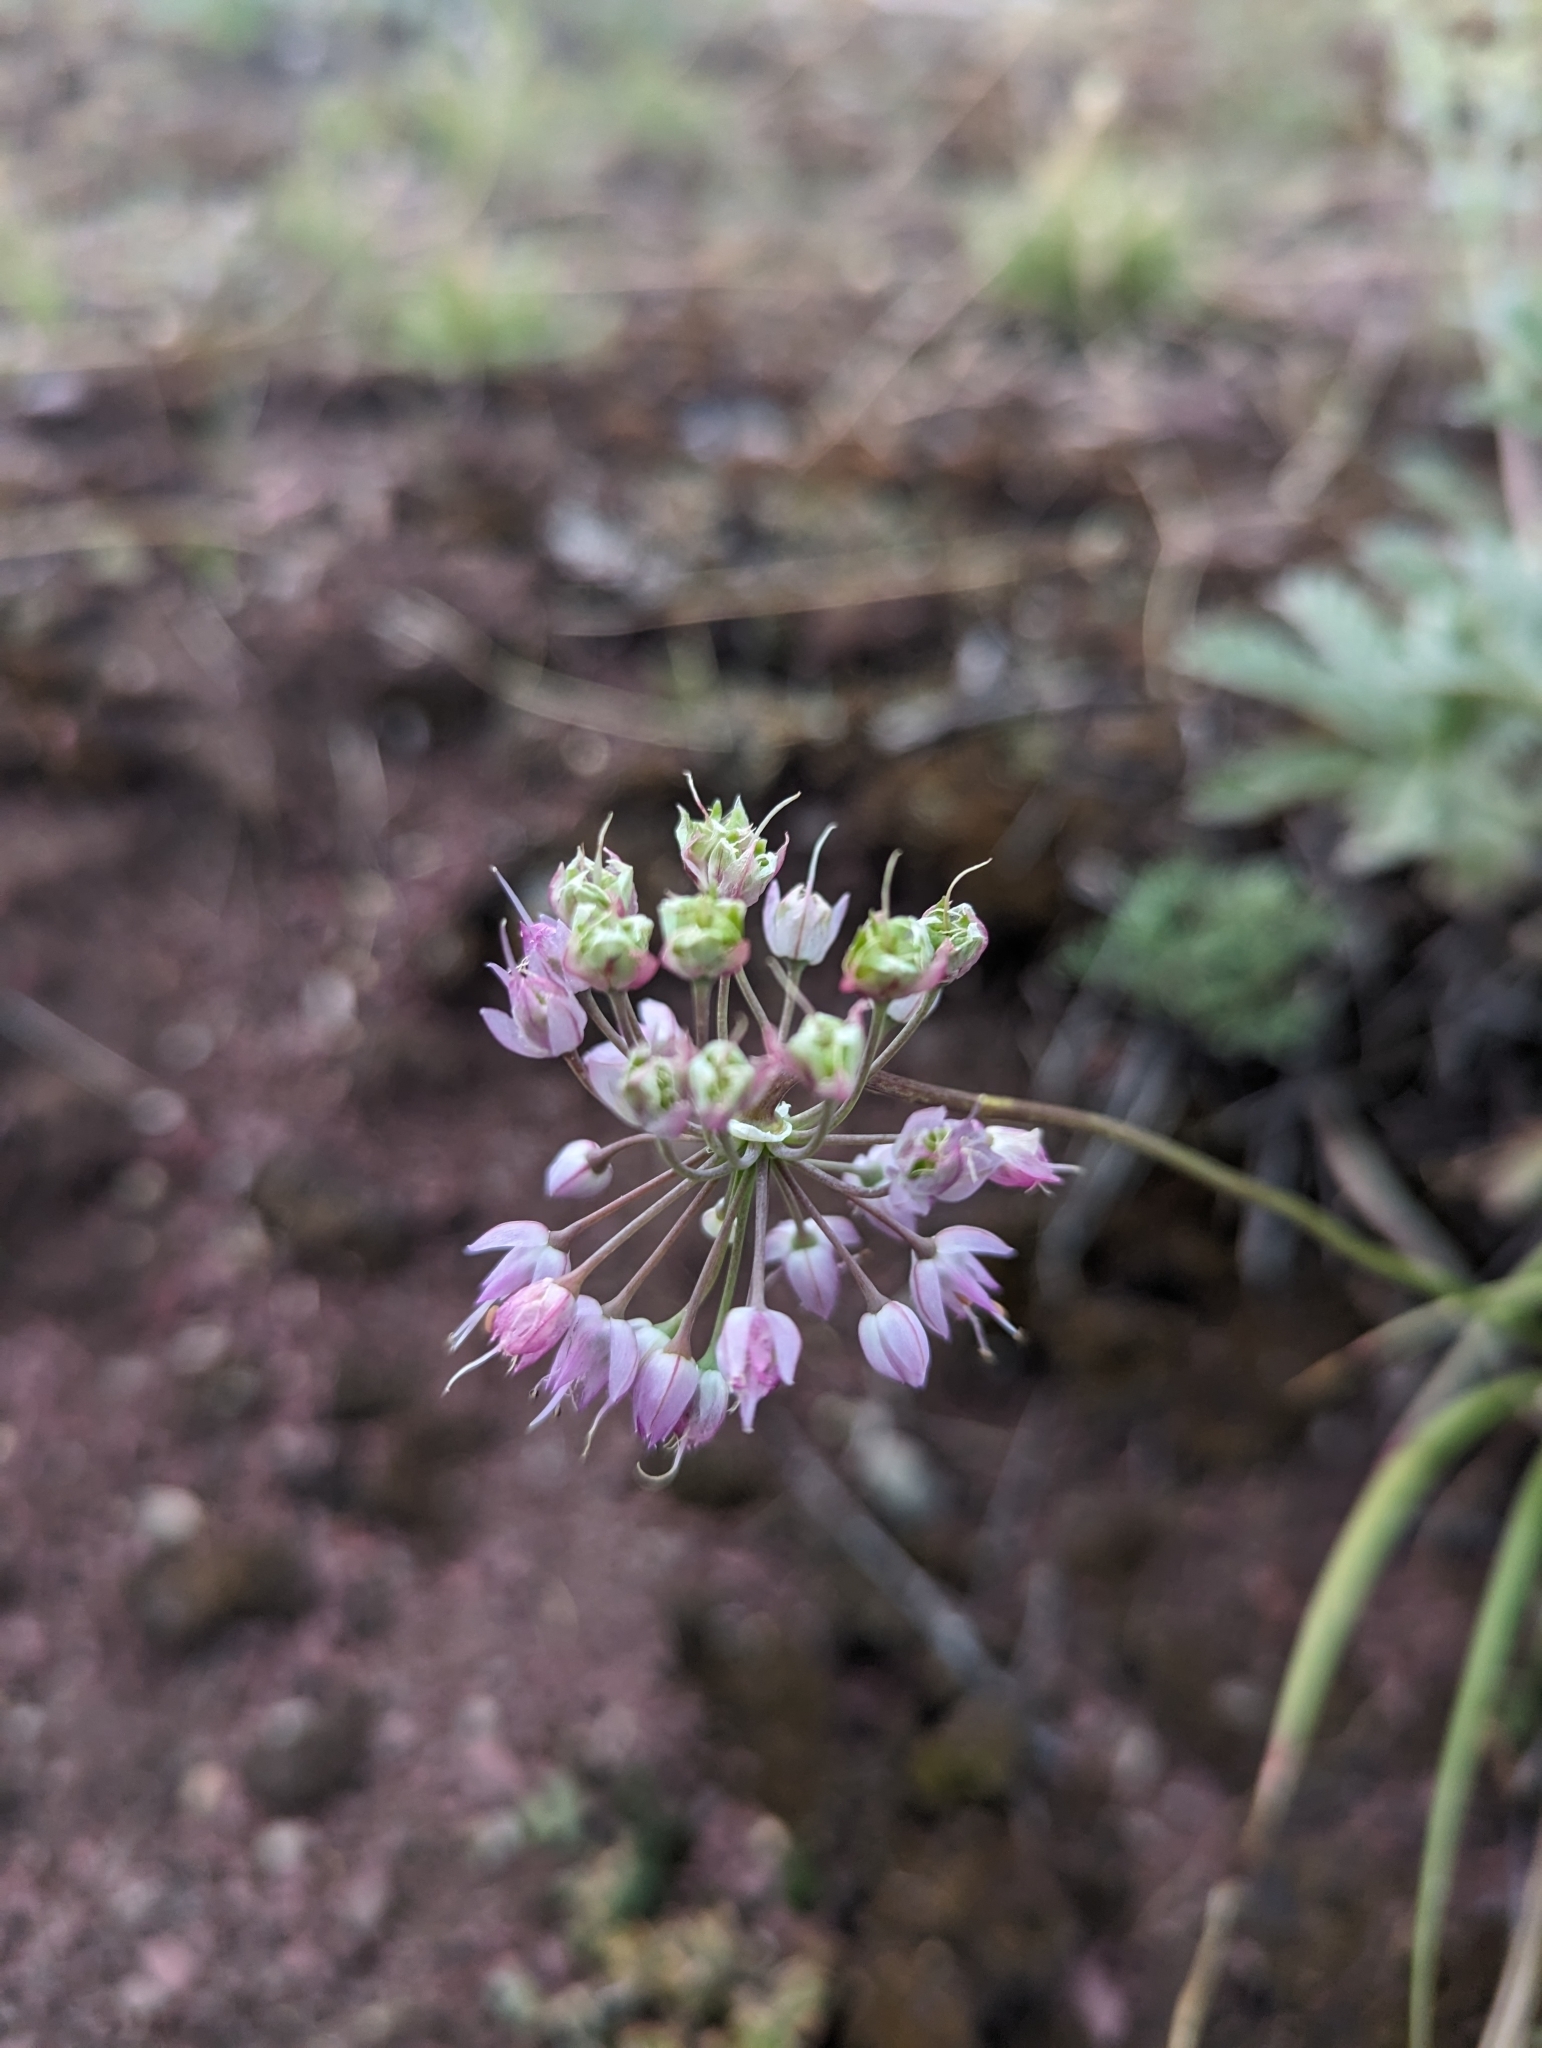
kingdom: Plantae
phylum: Tracheophyta
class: Liliopsida
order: Asparagales
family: Amaryllidaceae
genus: Allium
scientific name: Allium cernuum
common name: Nodding onion
